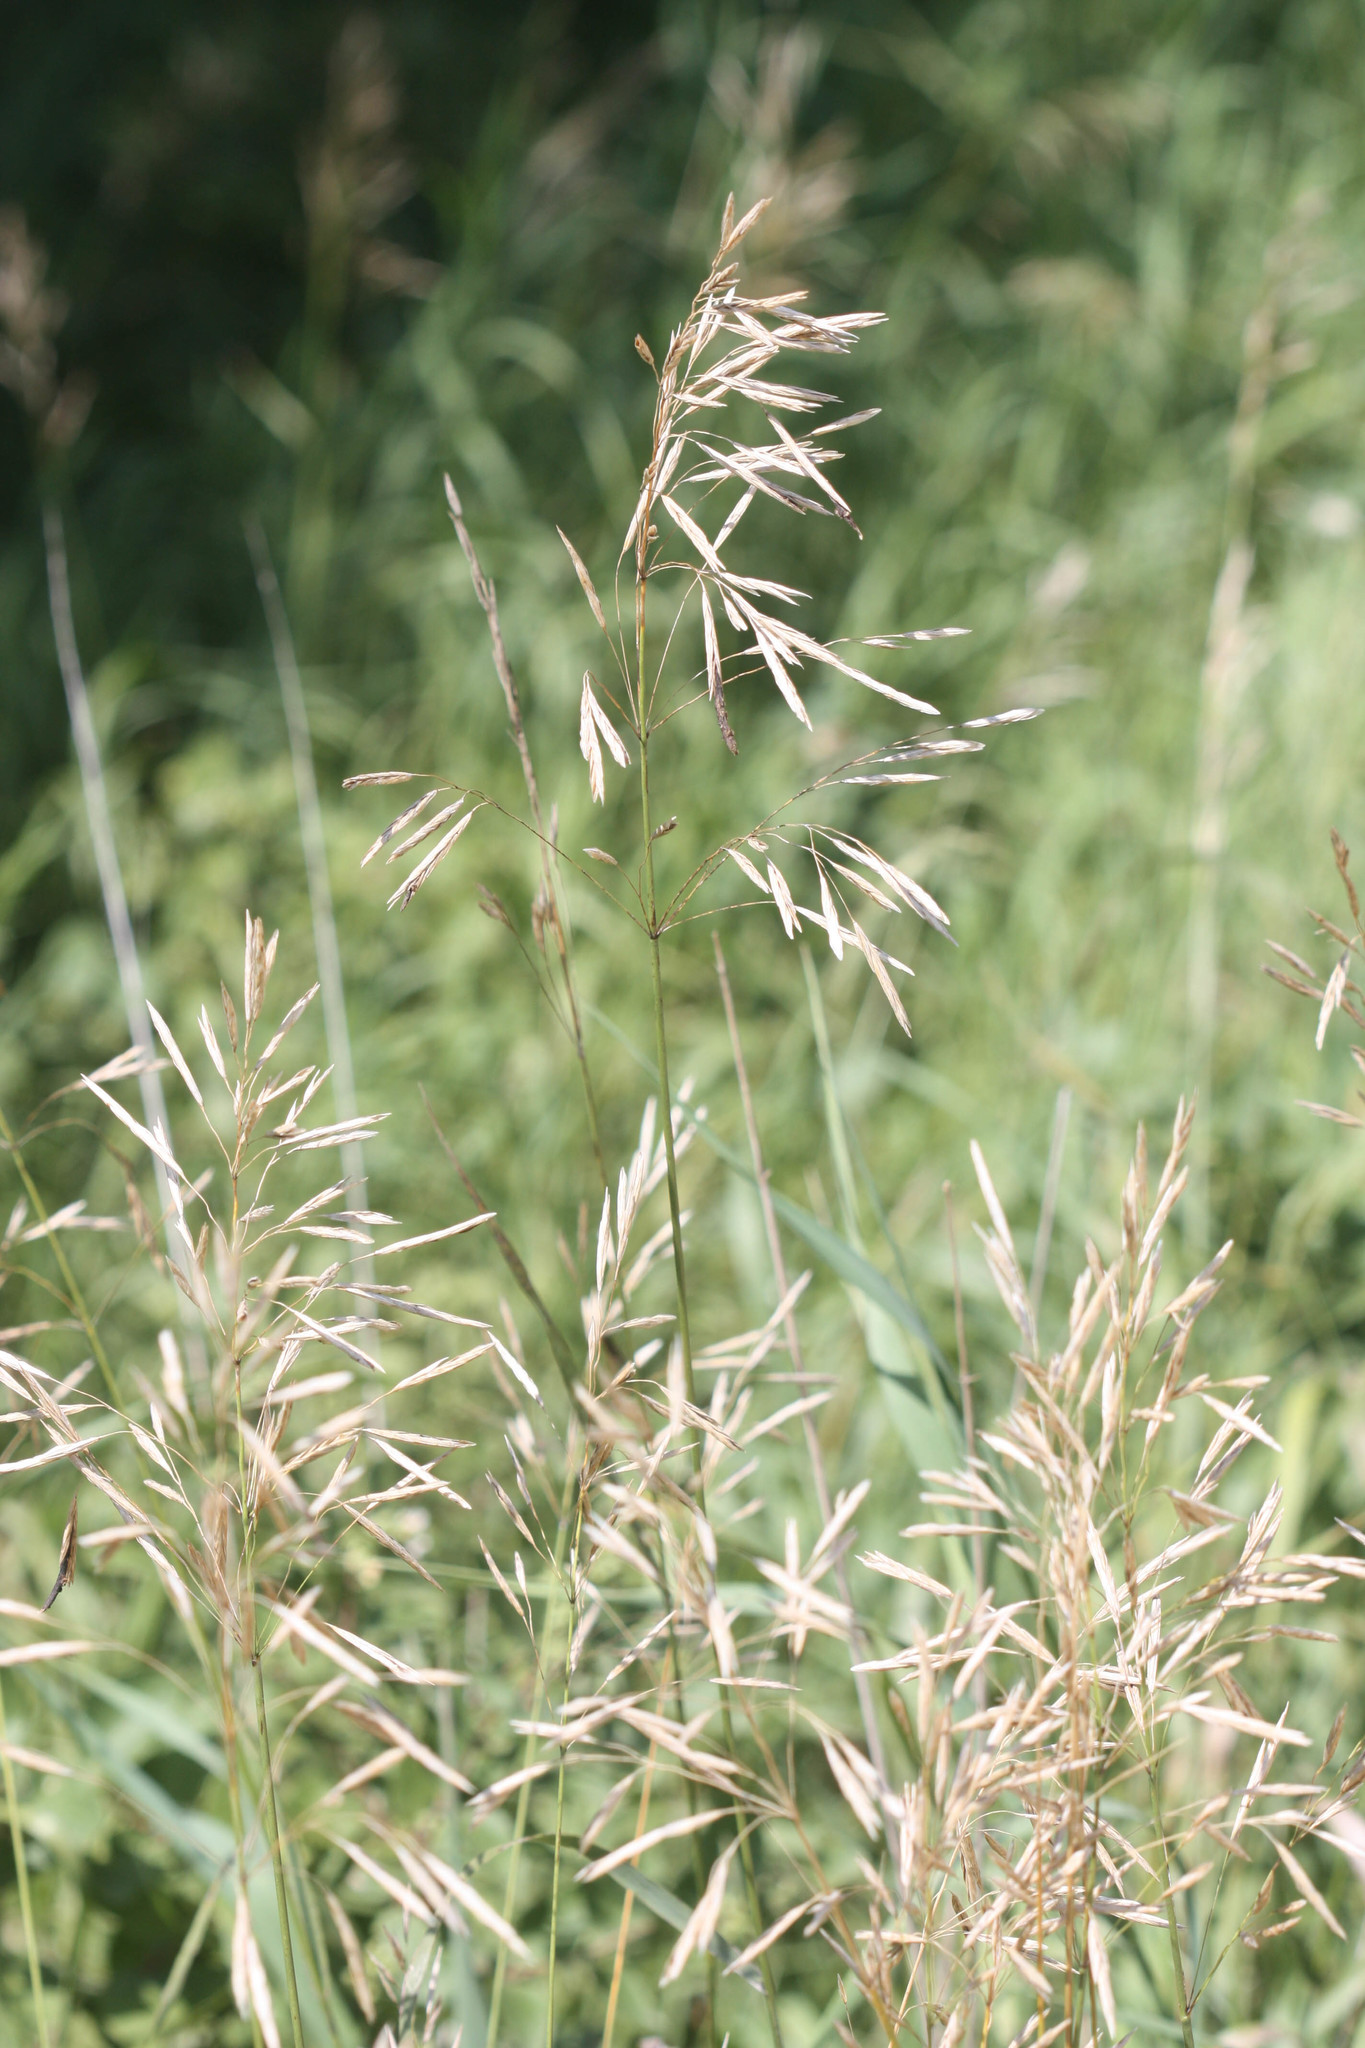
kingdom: Plantae
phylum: Tracheophyta
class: Liliopsida
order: Poales
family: Poaceae
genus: Bromus
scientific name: Bromus inermis
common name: Smooth brome
